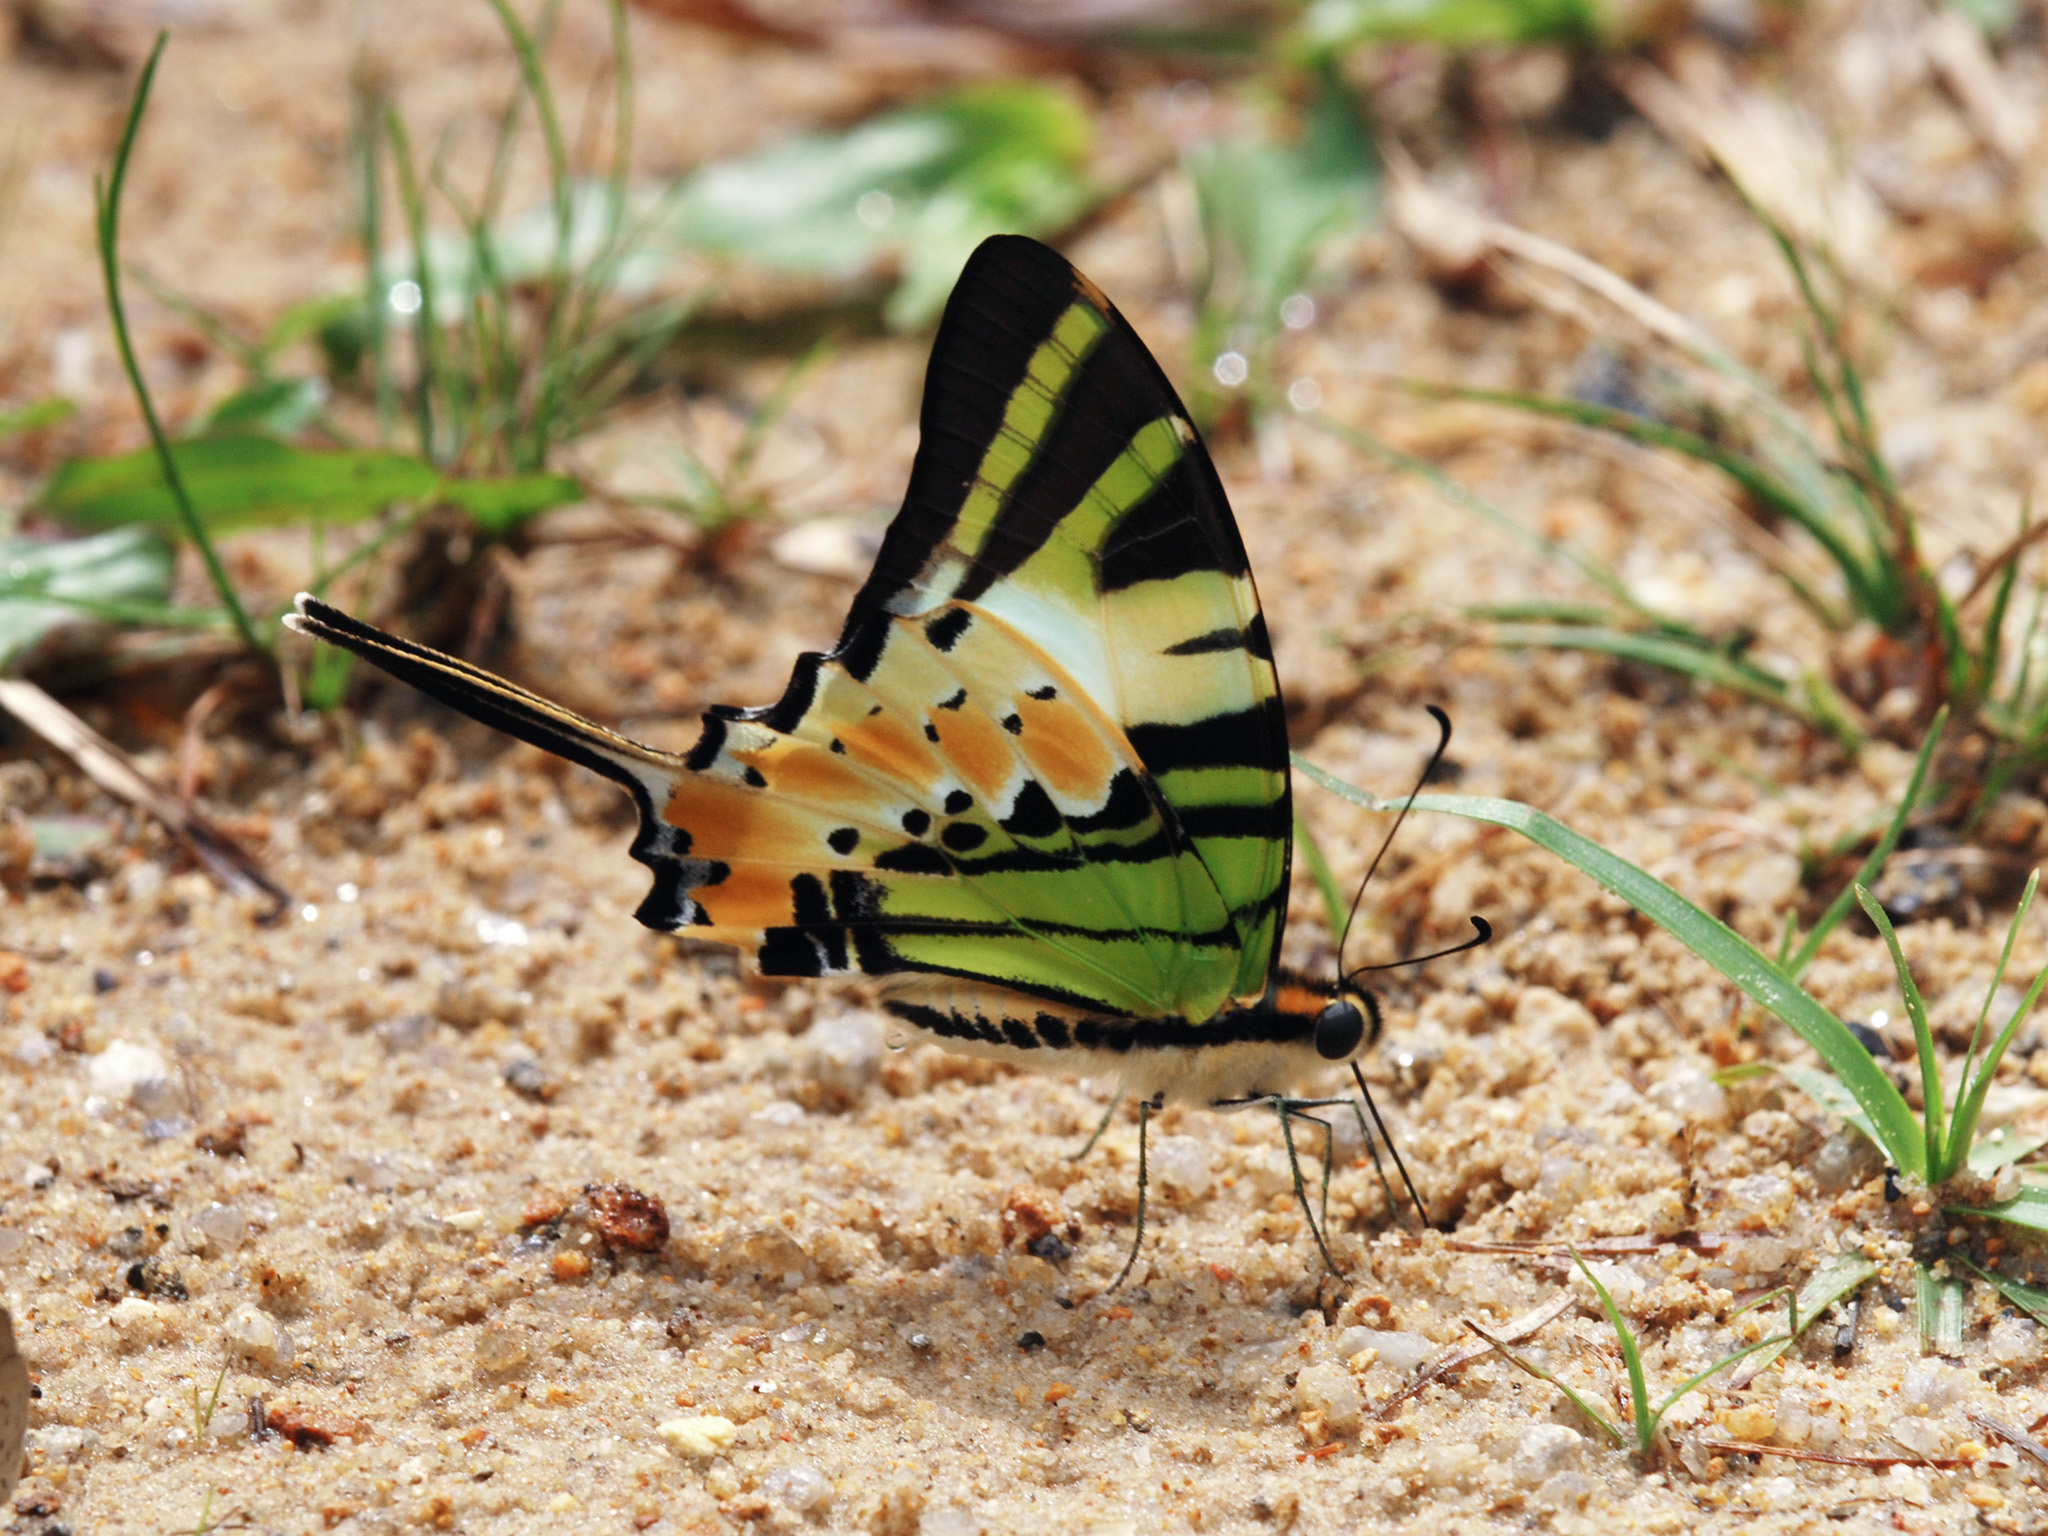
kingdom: Animalia
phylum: Arthropoda
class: Insecta
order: Lepidoptera
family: Papilionidae
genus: Graphium
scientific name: Graphium antiphates
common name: Fivebar swordtail
